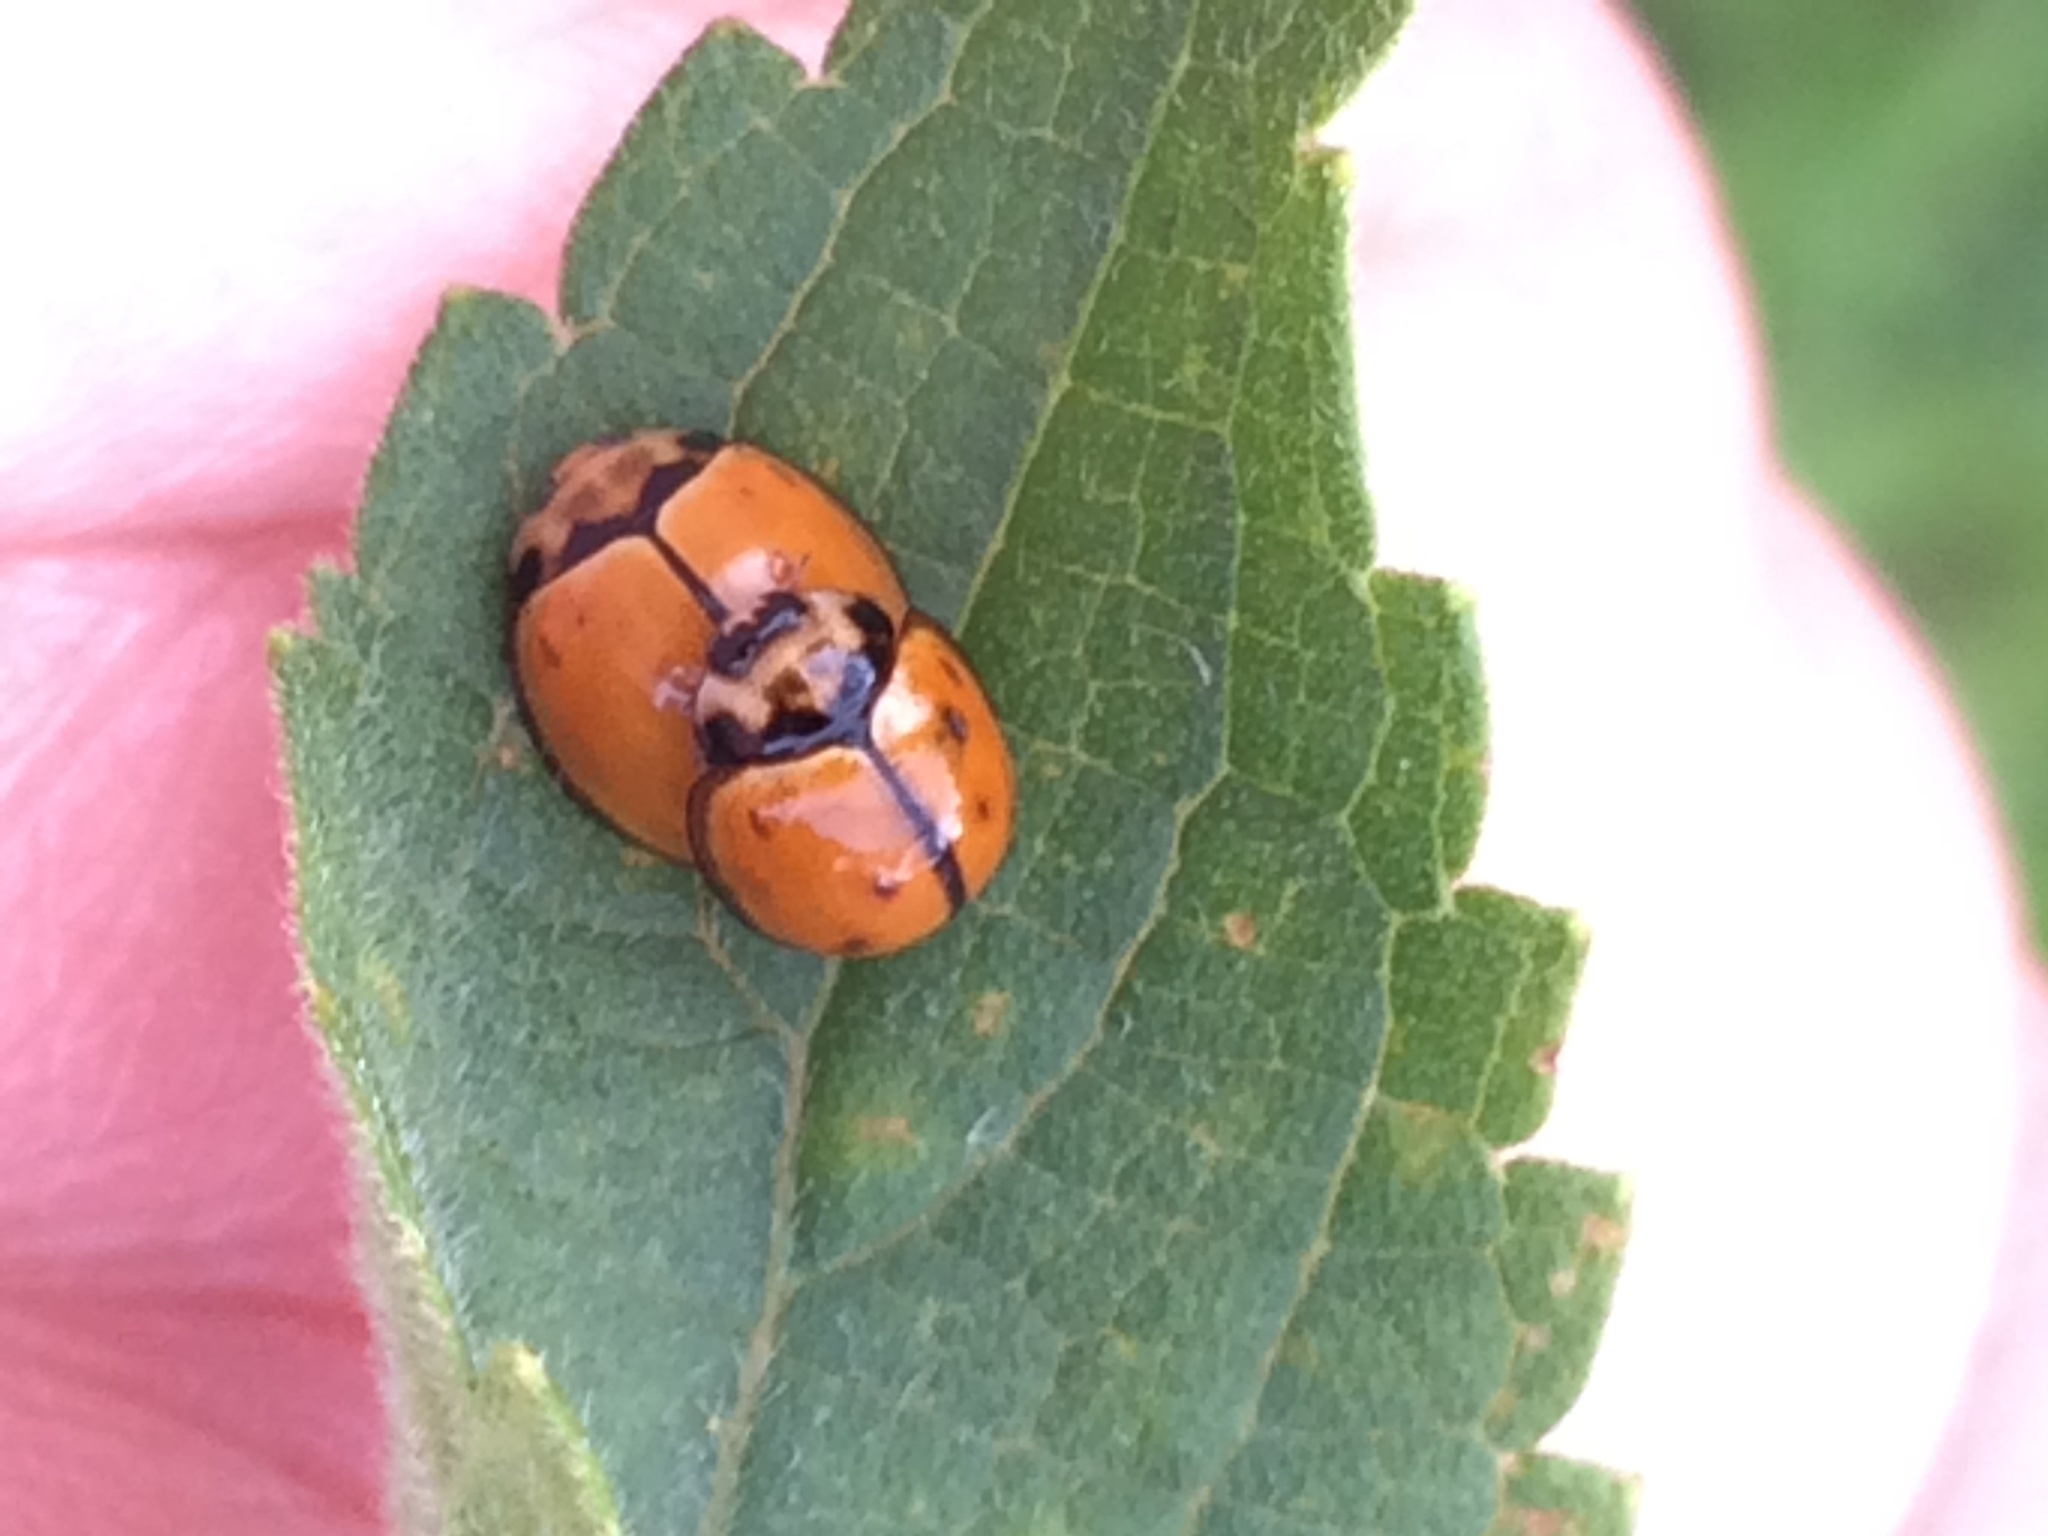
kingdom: Animalia
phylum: Arthropoda
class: Insecta
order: Coleoptera
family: Coccinellidae
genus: Coelophora
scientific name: Coelophora inaequalis
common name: Common australian lady beetle
